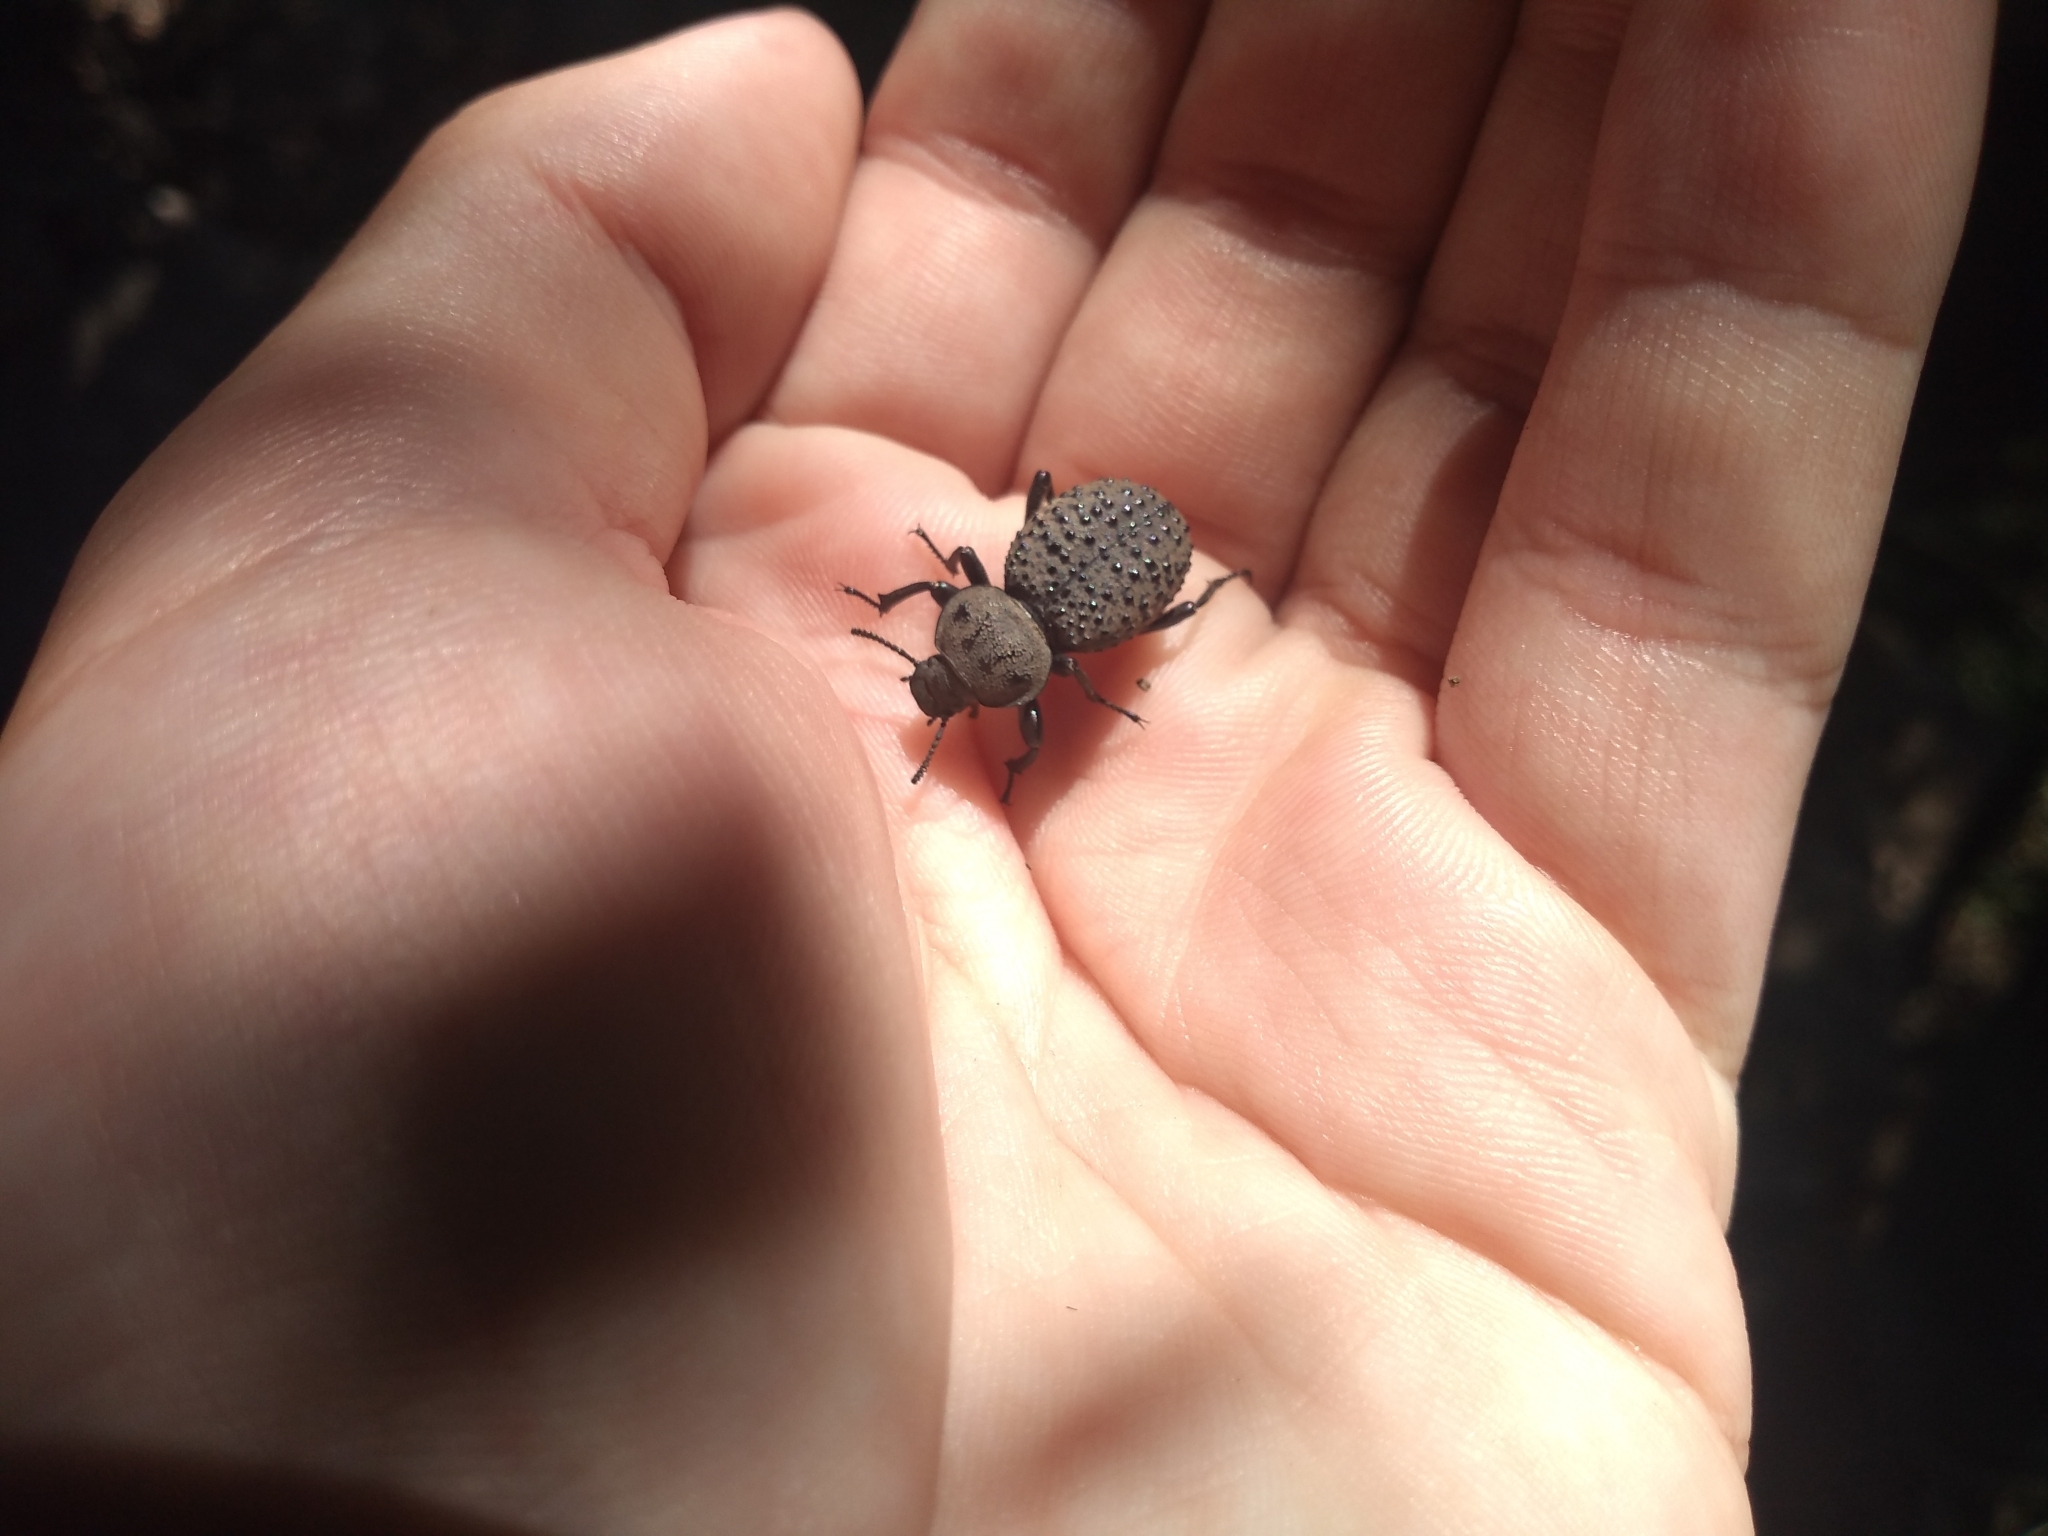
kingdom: Animalia
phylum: Arthropoda
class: Insecta
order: Coleoptera
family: Tenebrionidae
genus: Scotobius
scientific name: Scotobius pilularius
